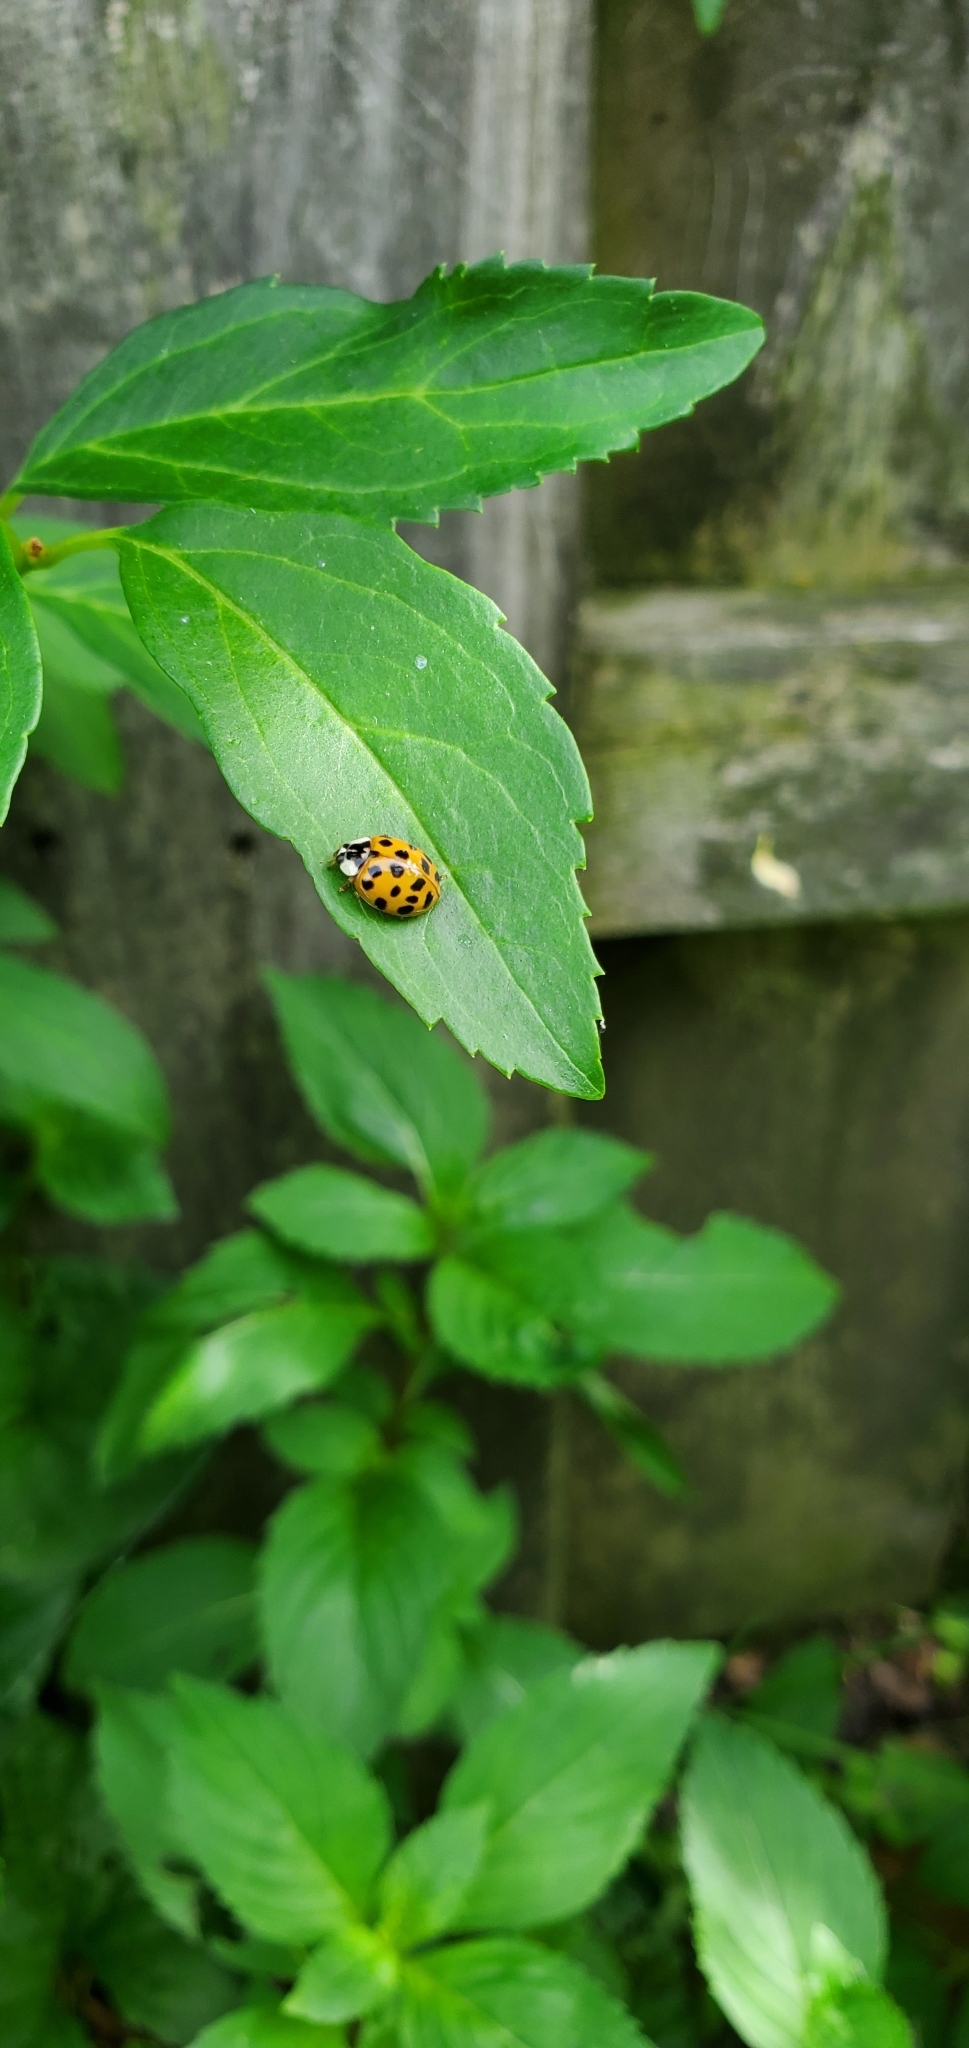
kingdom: Animalia
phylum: Arthropoda
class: Insecta
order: Coleoptera
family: Coccinellidae
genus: Harmonia
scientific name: Harmonia axyridis
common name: Harlequin ladybird
